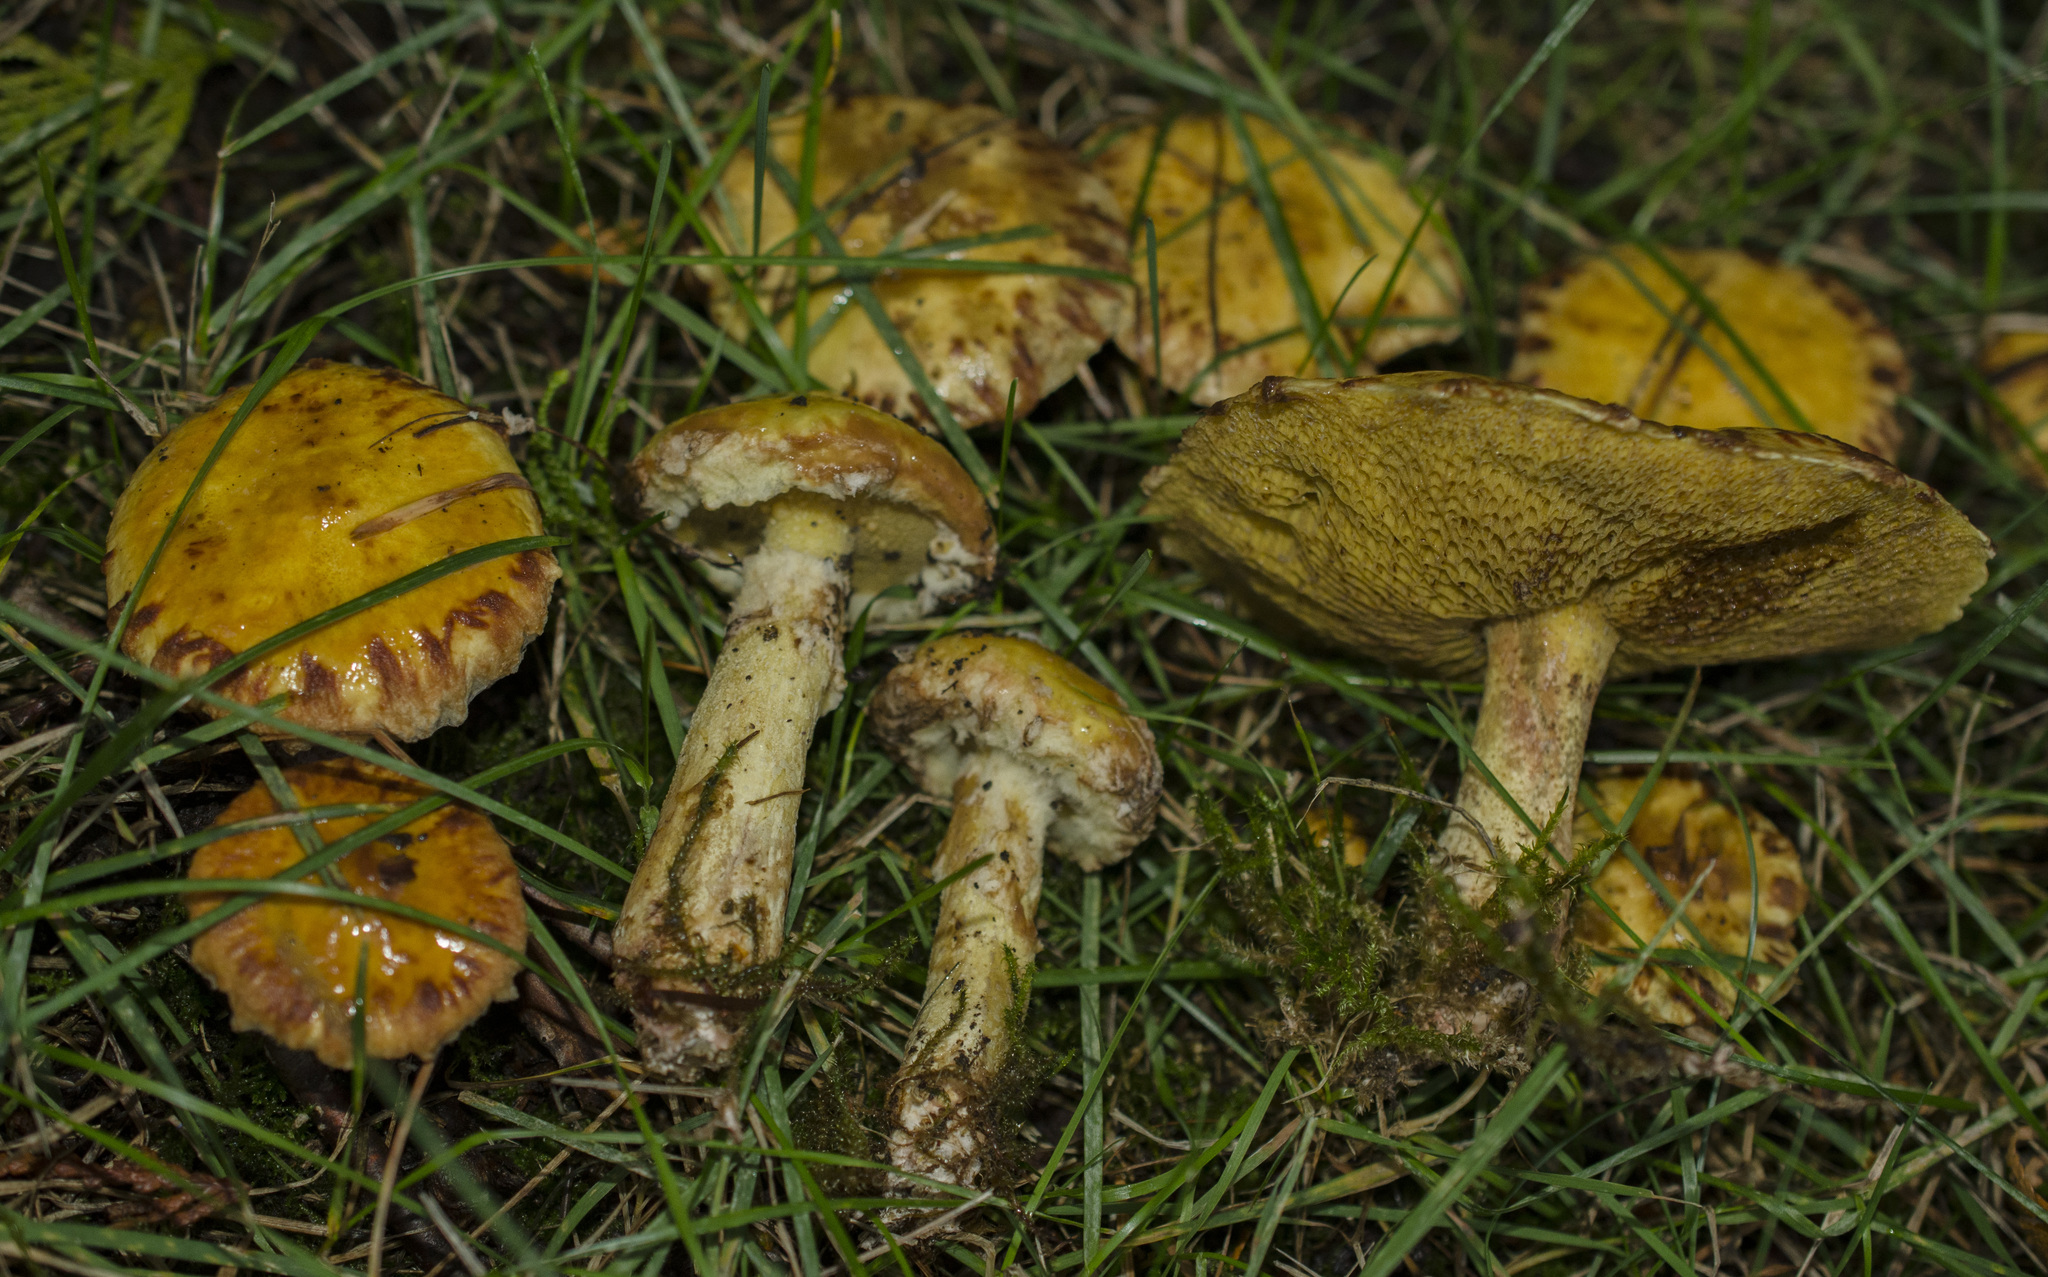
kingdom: Fungi
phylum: Basidiomycota
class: Agaricomycetes
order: Boletales
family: Suillaceae
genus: Suillus
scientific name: Suillus americanus
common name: Chicken fat mushroom
